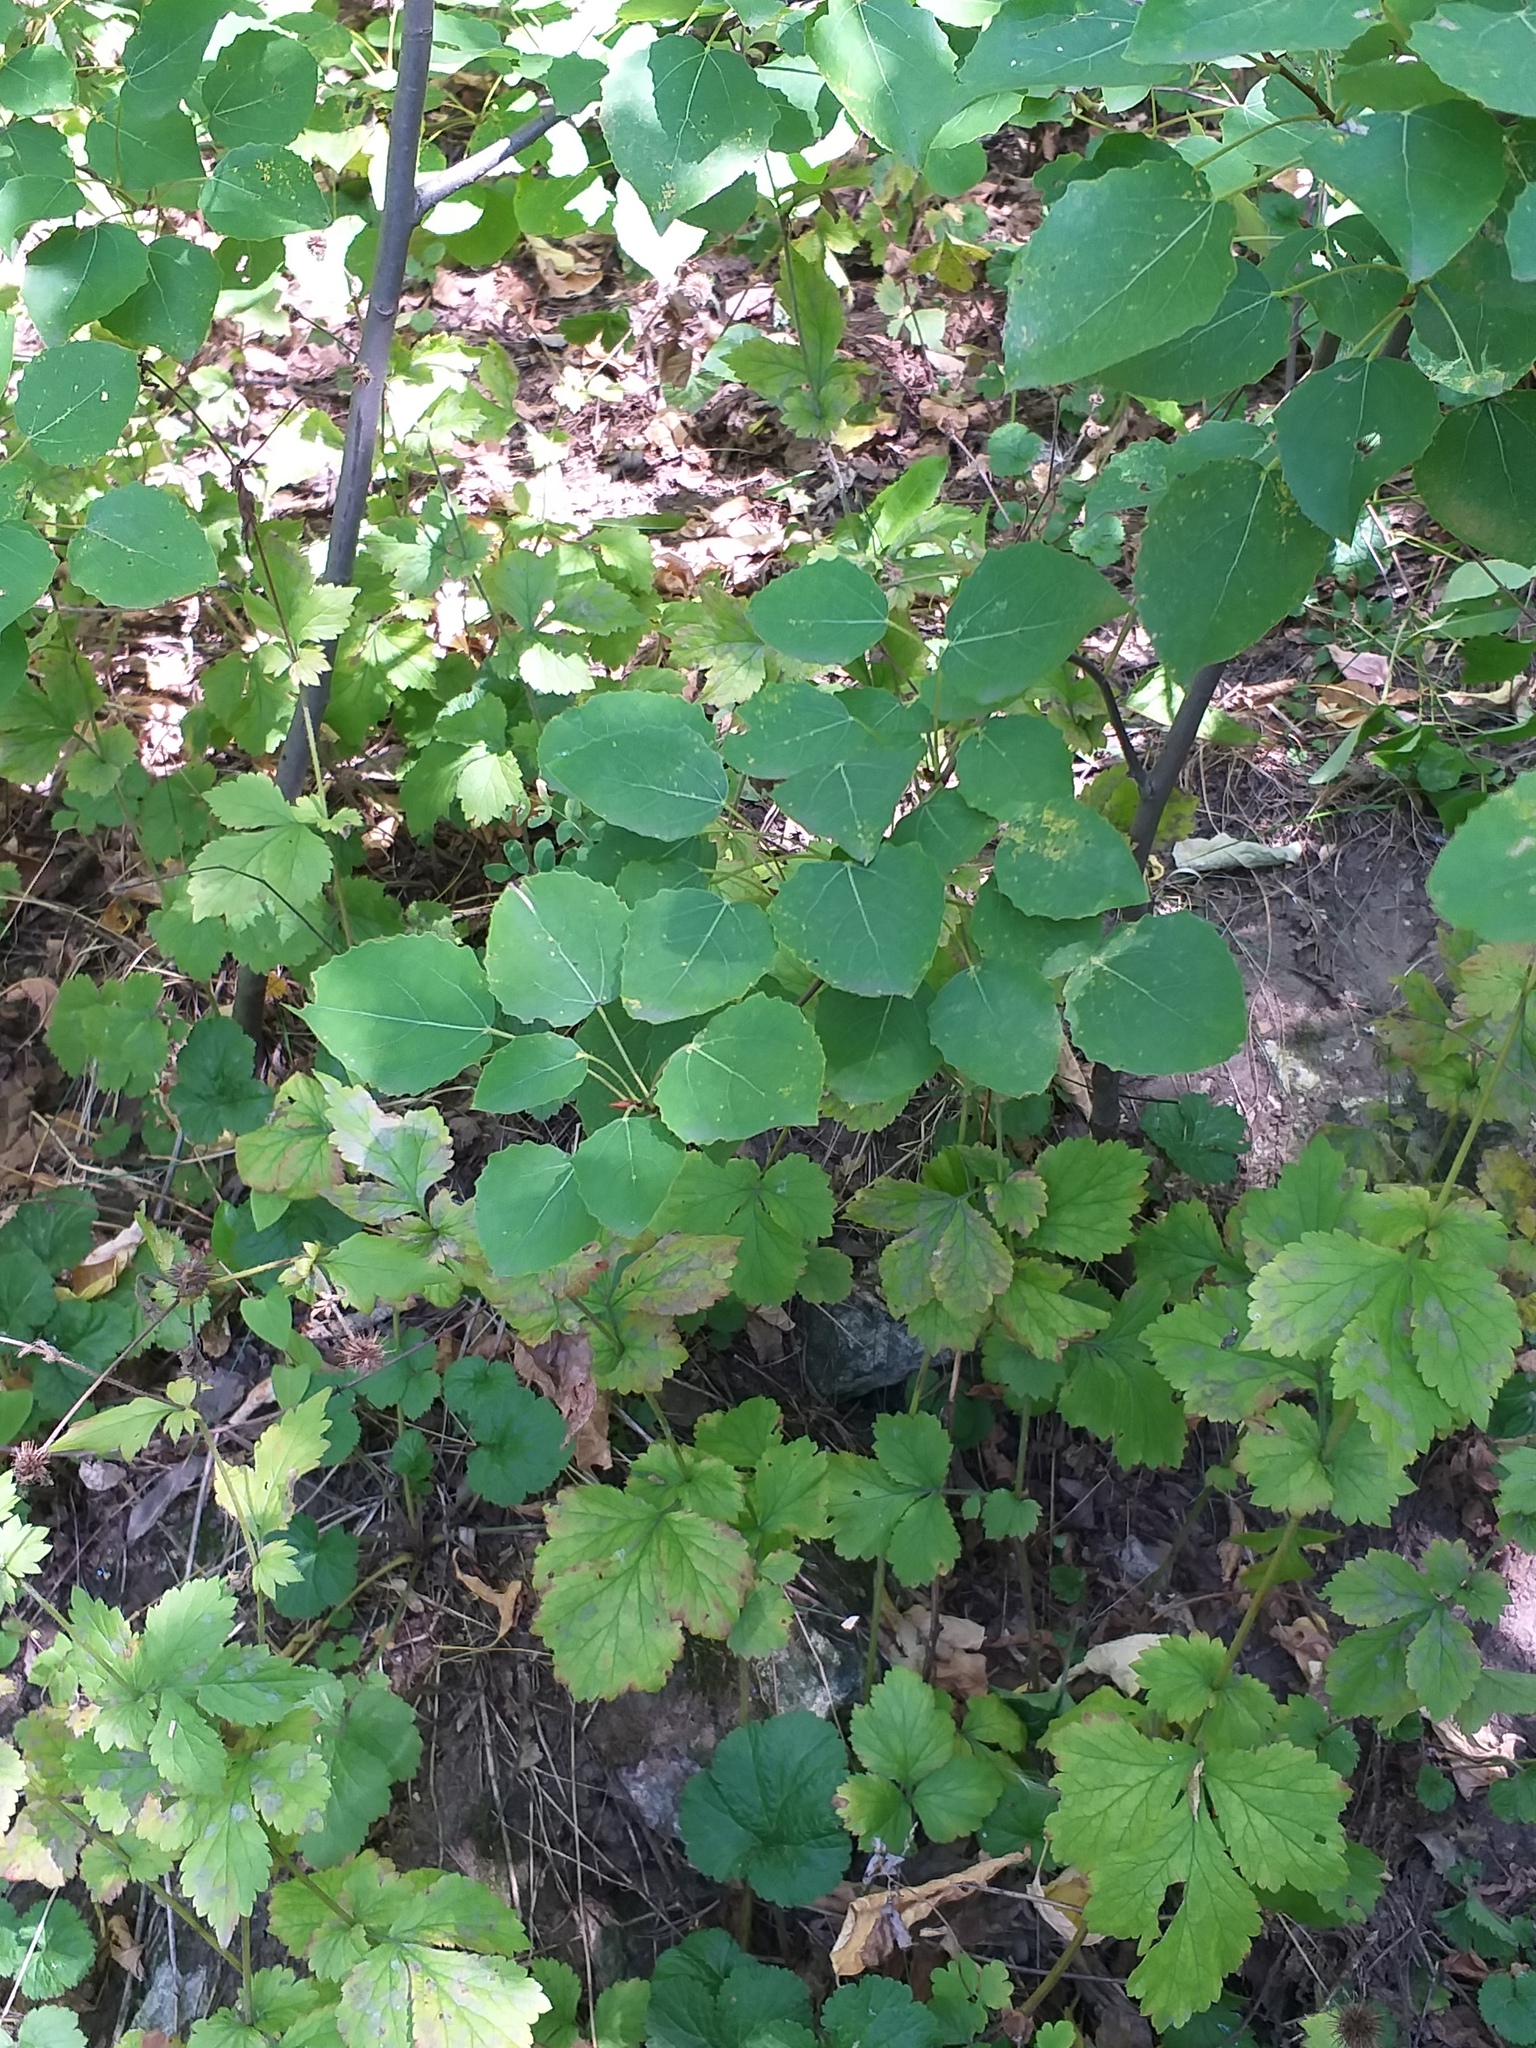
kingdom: Plantae
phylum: Tracheophyta
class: Magnoliopsida
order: Malpighiales
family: Salicaceae
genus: Populus
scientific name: Populus tremula
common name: European aspen
